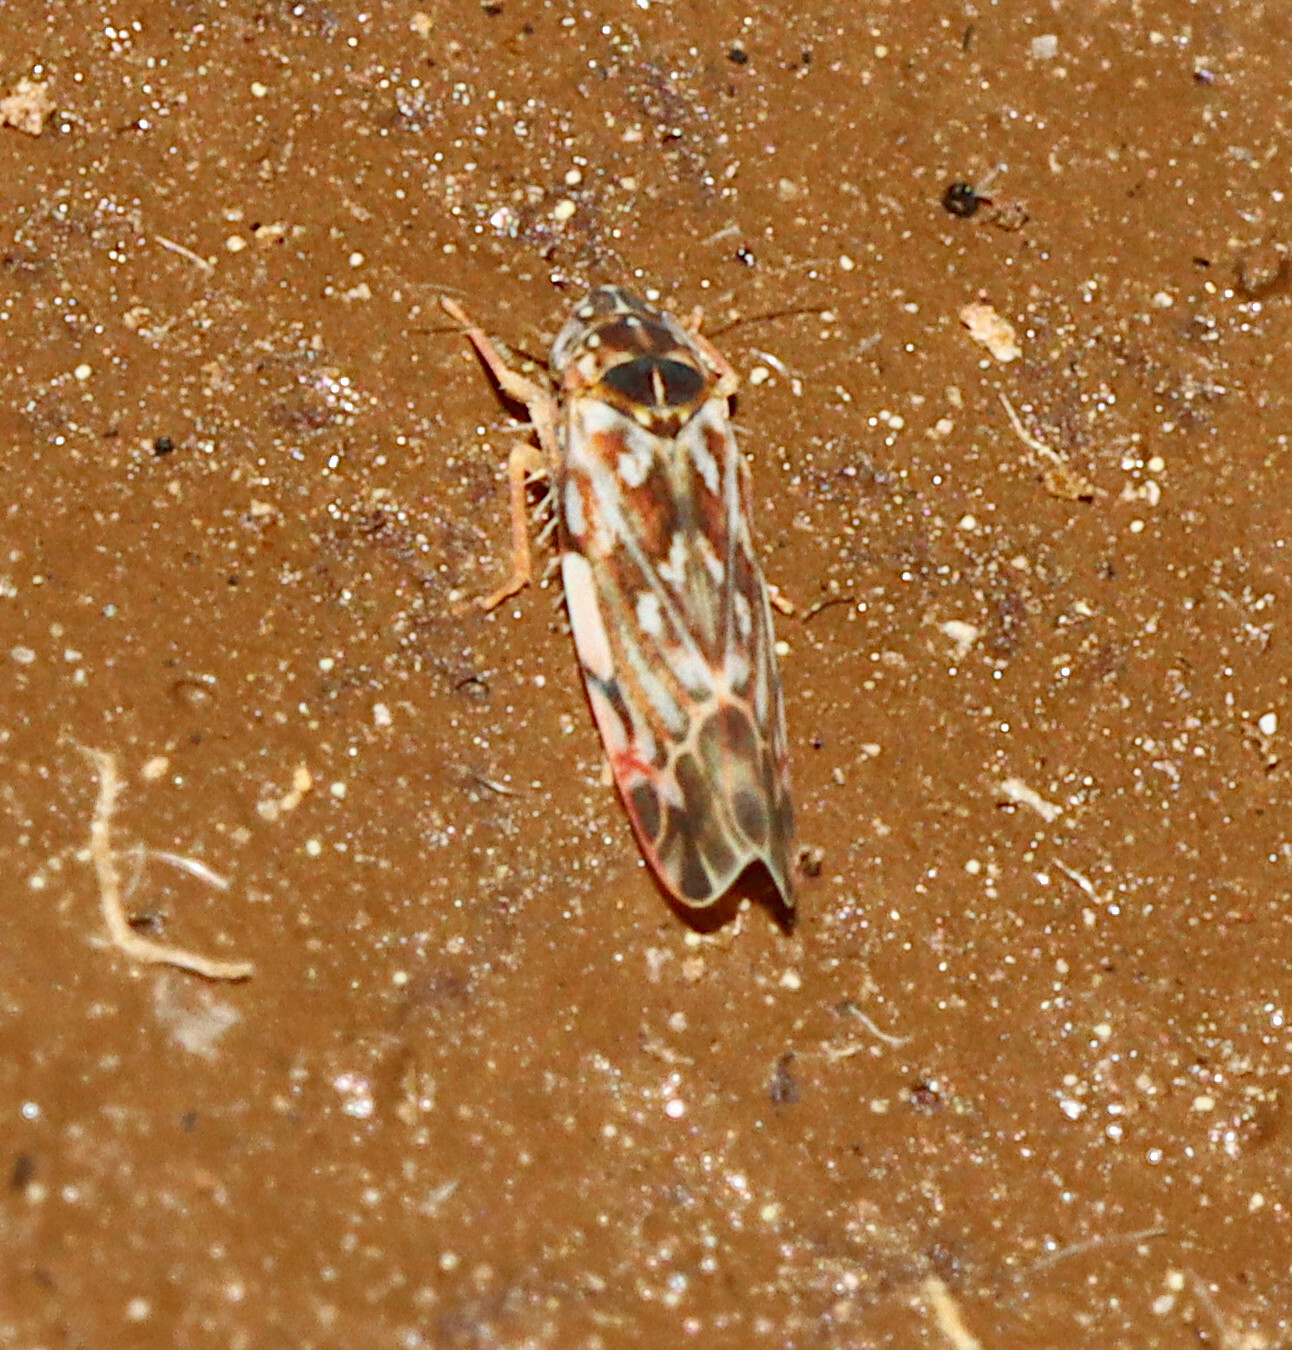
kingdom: Animalia
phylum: Arthropoda
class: Insecta
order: Hemiptera
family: Cicadellidae
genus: Erasmoneura
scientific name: Erasmoneura fulmina
